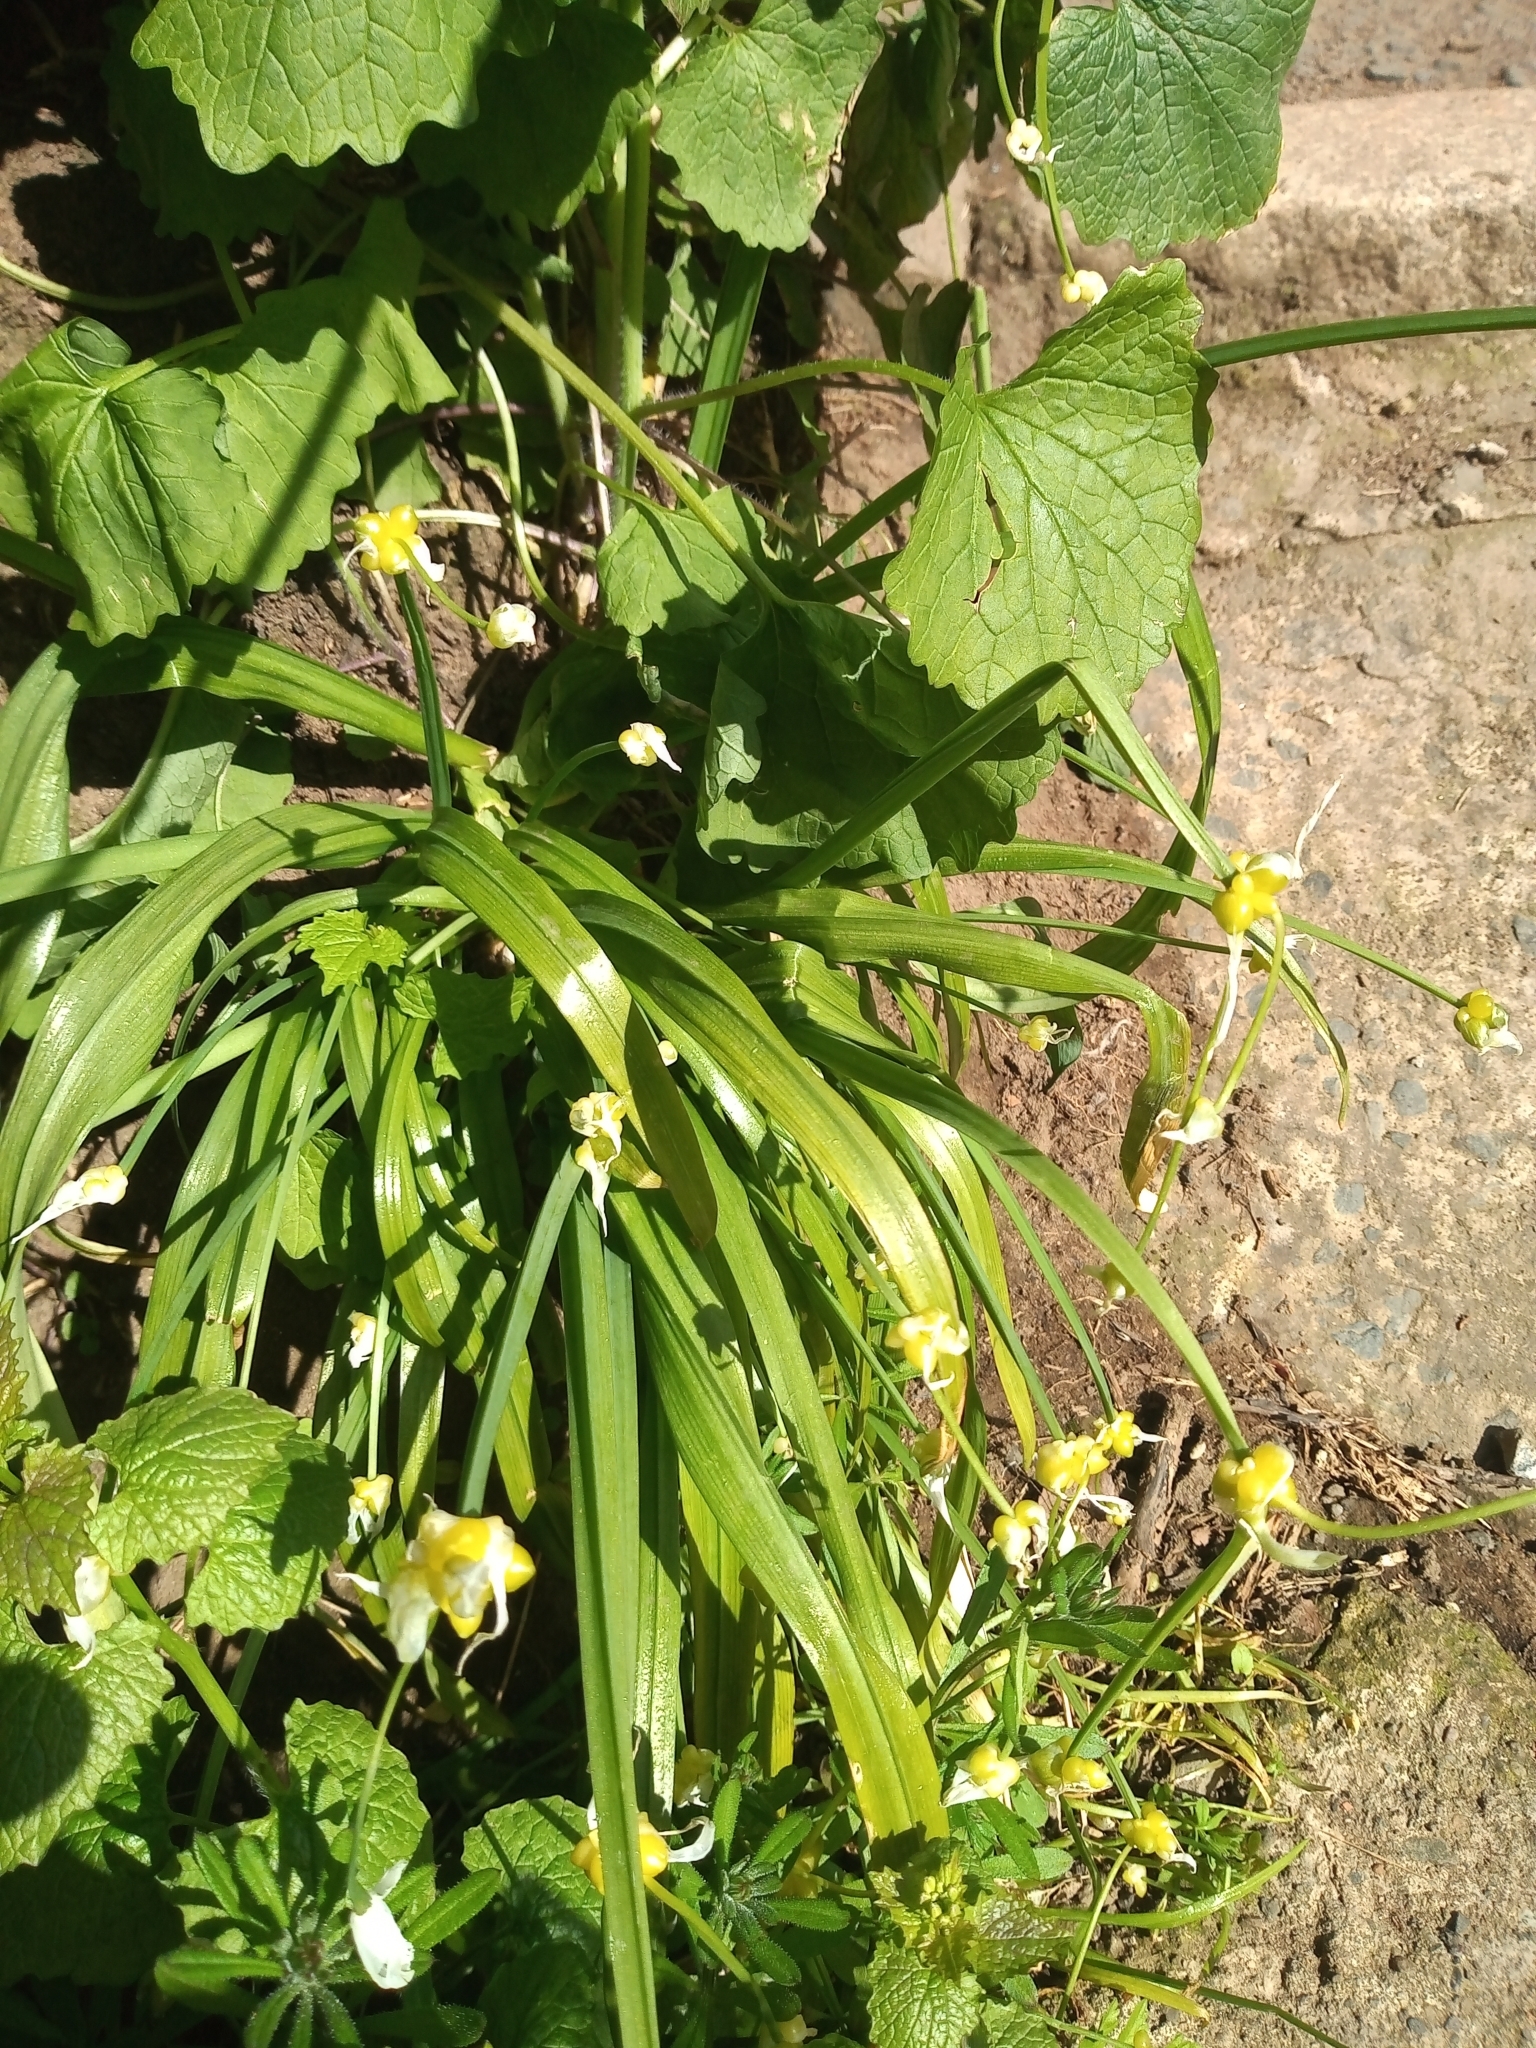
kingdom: Plantae
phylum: Tracheophyta
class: Liliopsida
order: Asparagales
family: Amaryllidaceae
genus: Allium
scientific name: Allium paradoxum
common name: Few-flowered garlic
